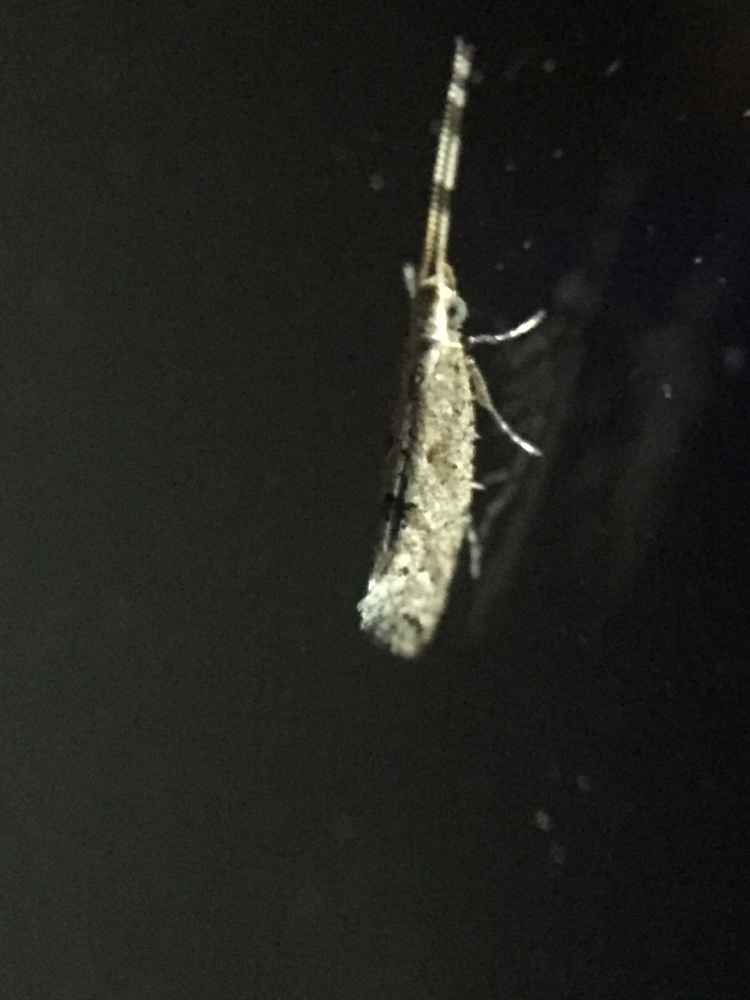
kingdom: Animalia
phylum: Arthropoda
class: Insecta
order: Lepidoptera
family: Plutellidae
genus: Leuroperna
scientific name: Leuroperna sera
